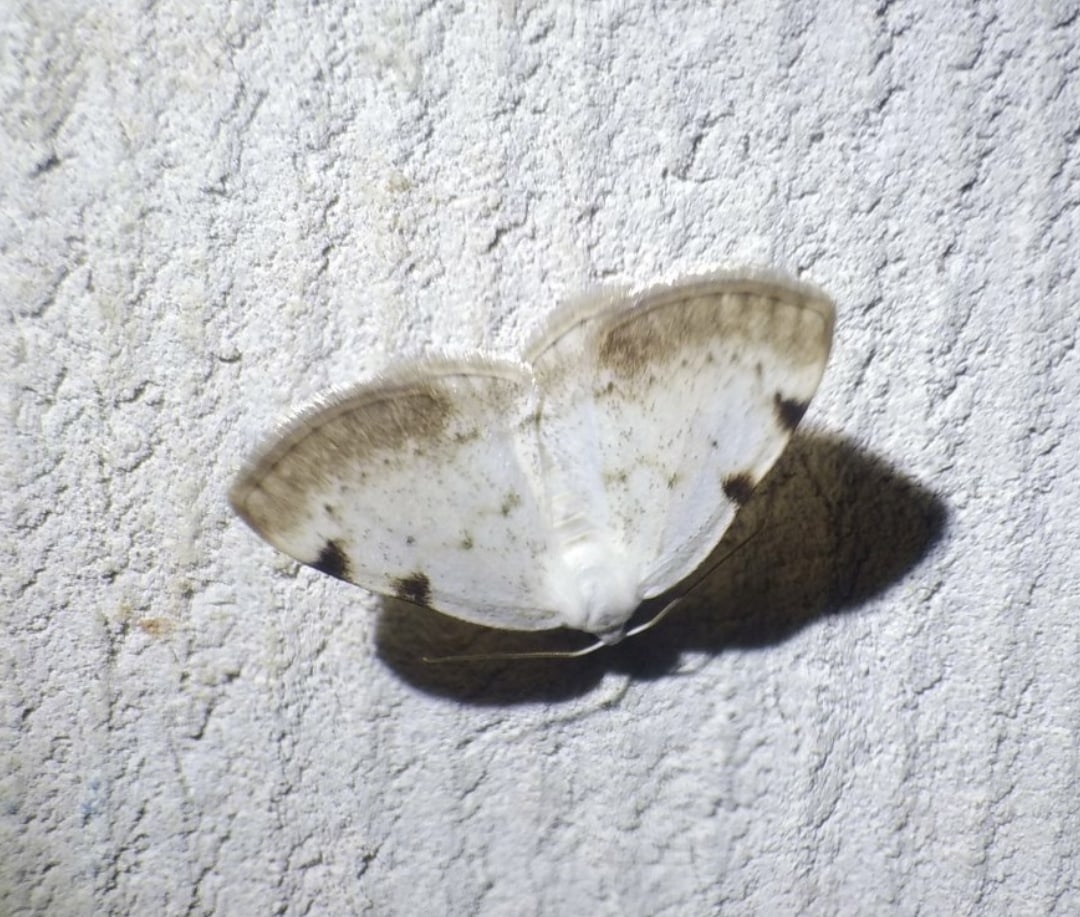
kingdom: Animalia
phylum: Arthropoda
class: Insecta
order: Lepidoptera
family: Geometridae
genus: Lomographa
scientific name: Lomographa bimaculata
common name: White-pinion spotted
